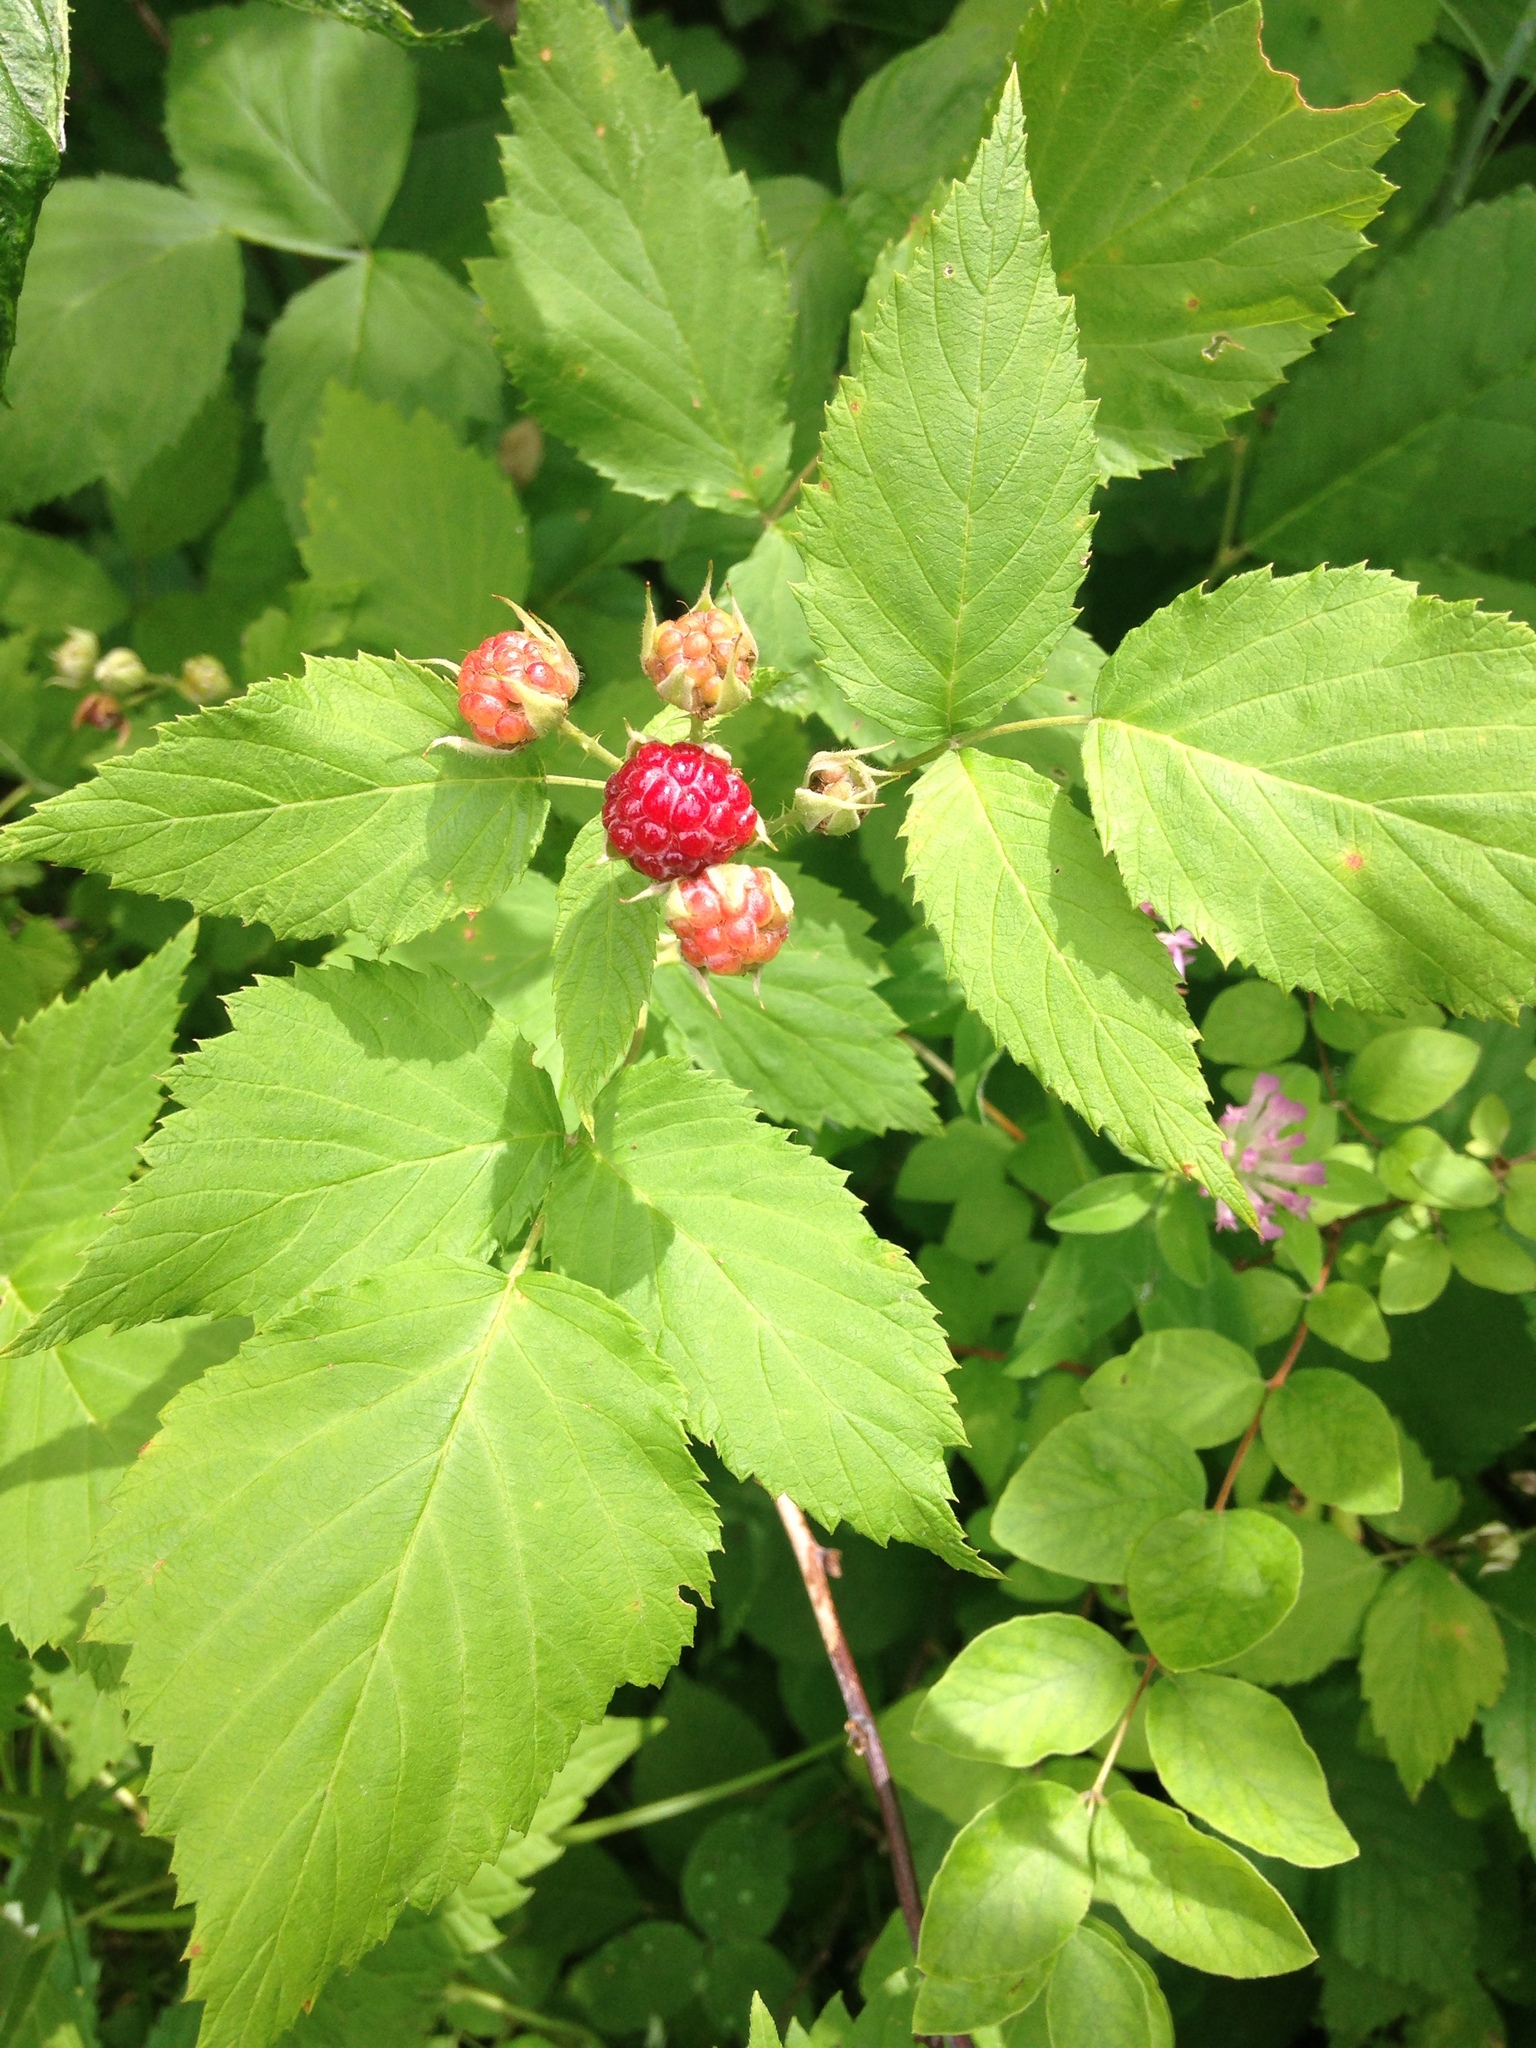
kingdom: Plantae
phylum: Tracheophyta
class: Magnoliopsida
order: Rosales
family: Rosaceae
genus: Rubus
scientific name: Rubus occidentalis
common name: Black raspberry
